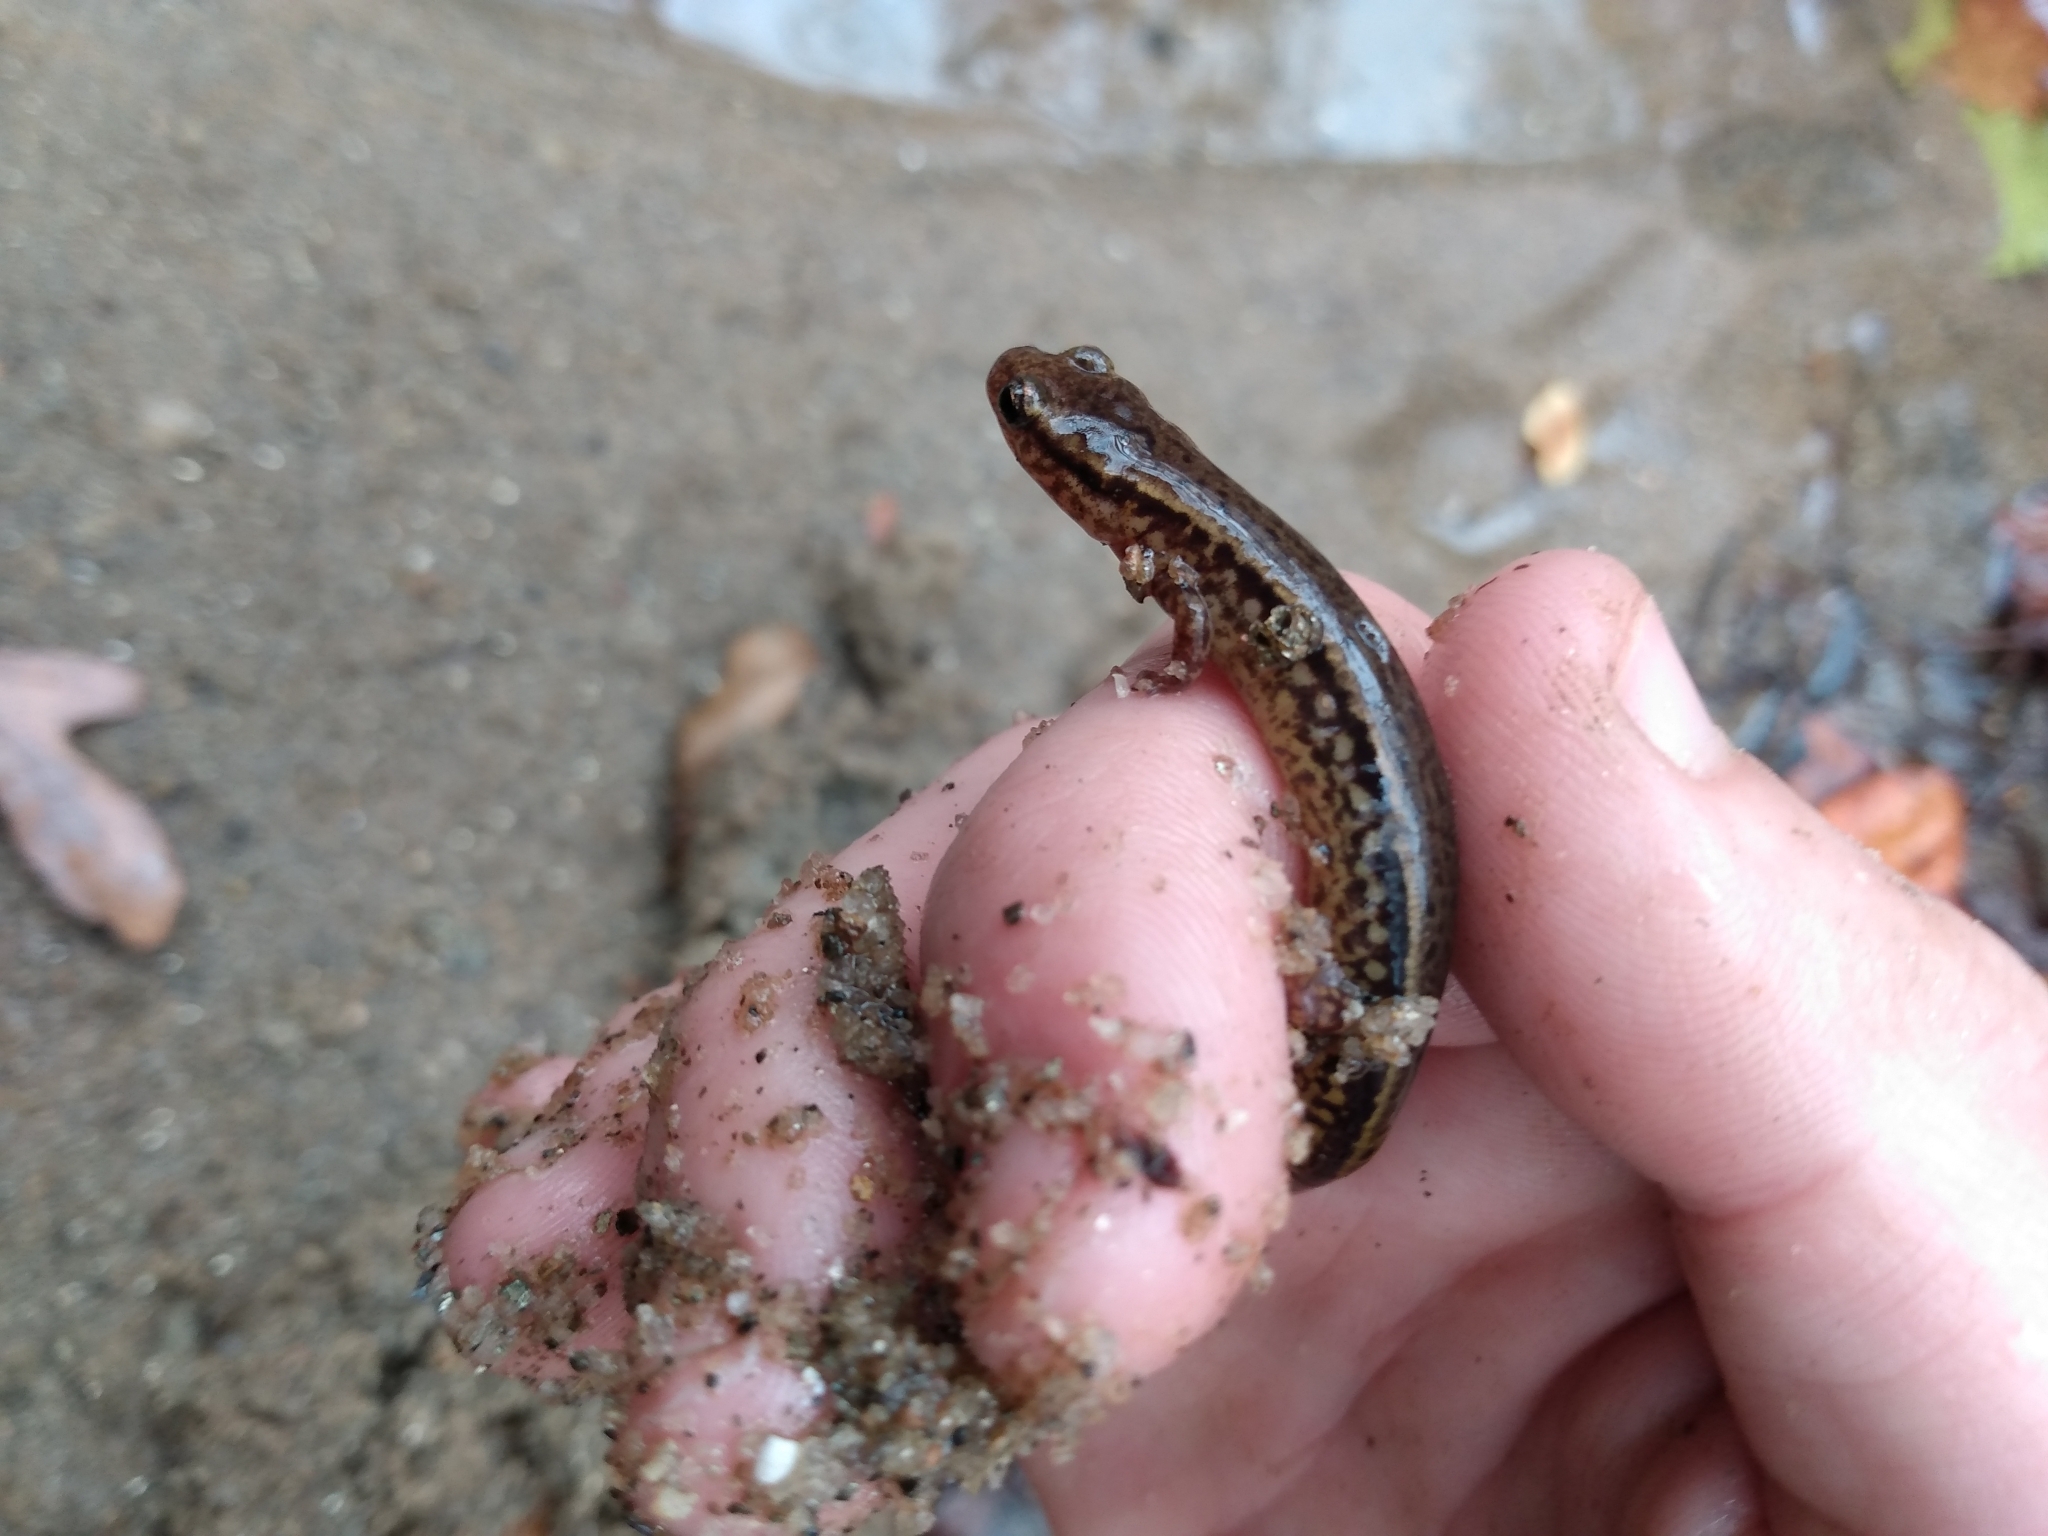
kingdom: Animalia
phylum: Chordata
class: Amphibia
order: Caudata
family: Plethodontidae
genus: Eurycea
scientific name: Eurycea cirrigera
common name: Southern two-lined salamander
